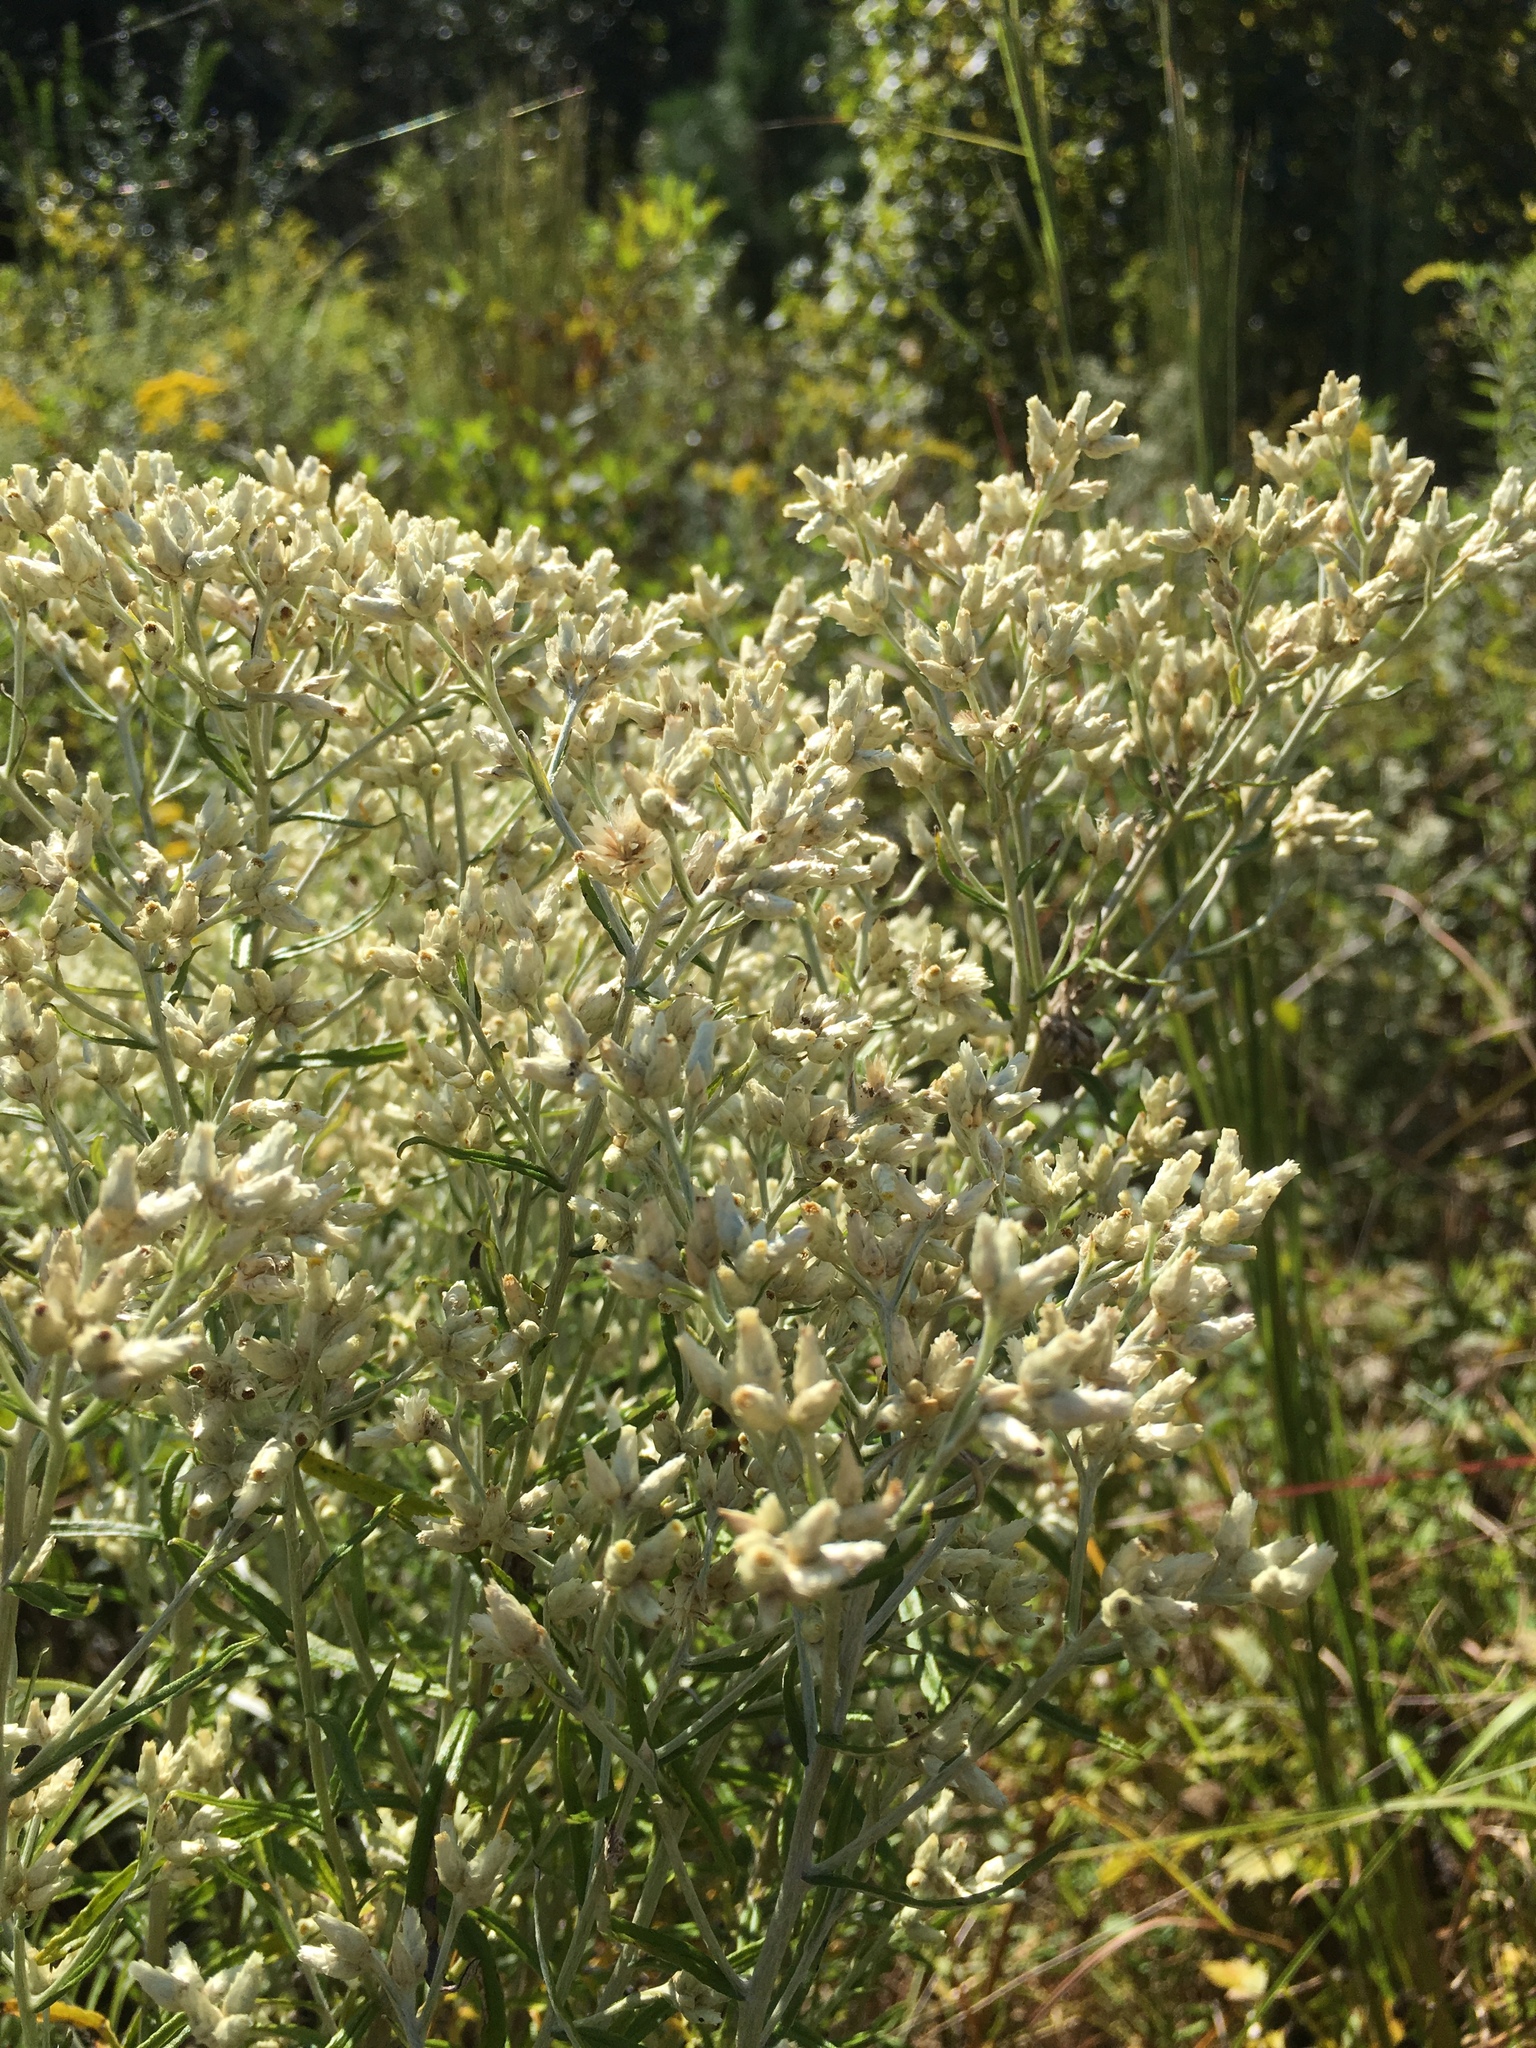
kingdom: Plantae
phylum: Tracheophyta
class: Magnoliopsida
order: Asterales
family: Asteraceae
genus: Pseudognaphalium
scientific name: Pseudognaphalium obtusifolium
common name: Eastern rabbit-tobacco
